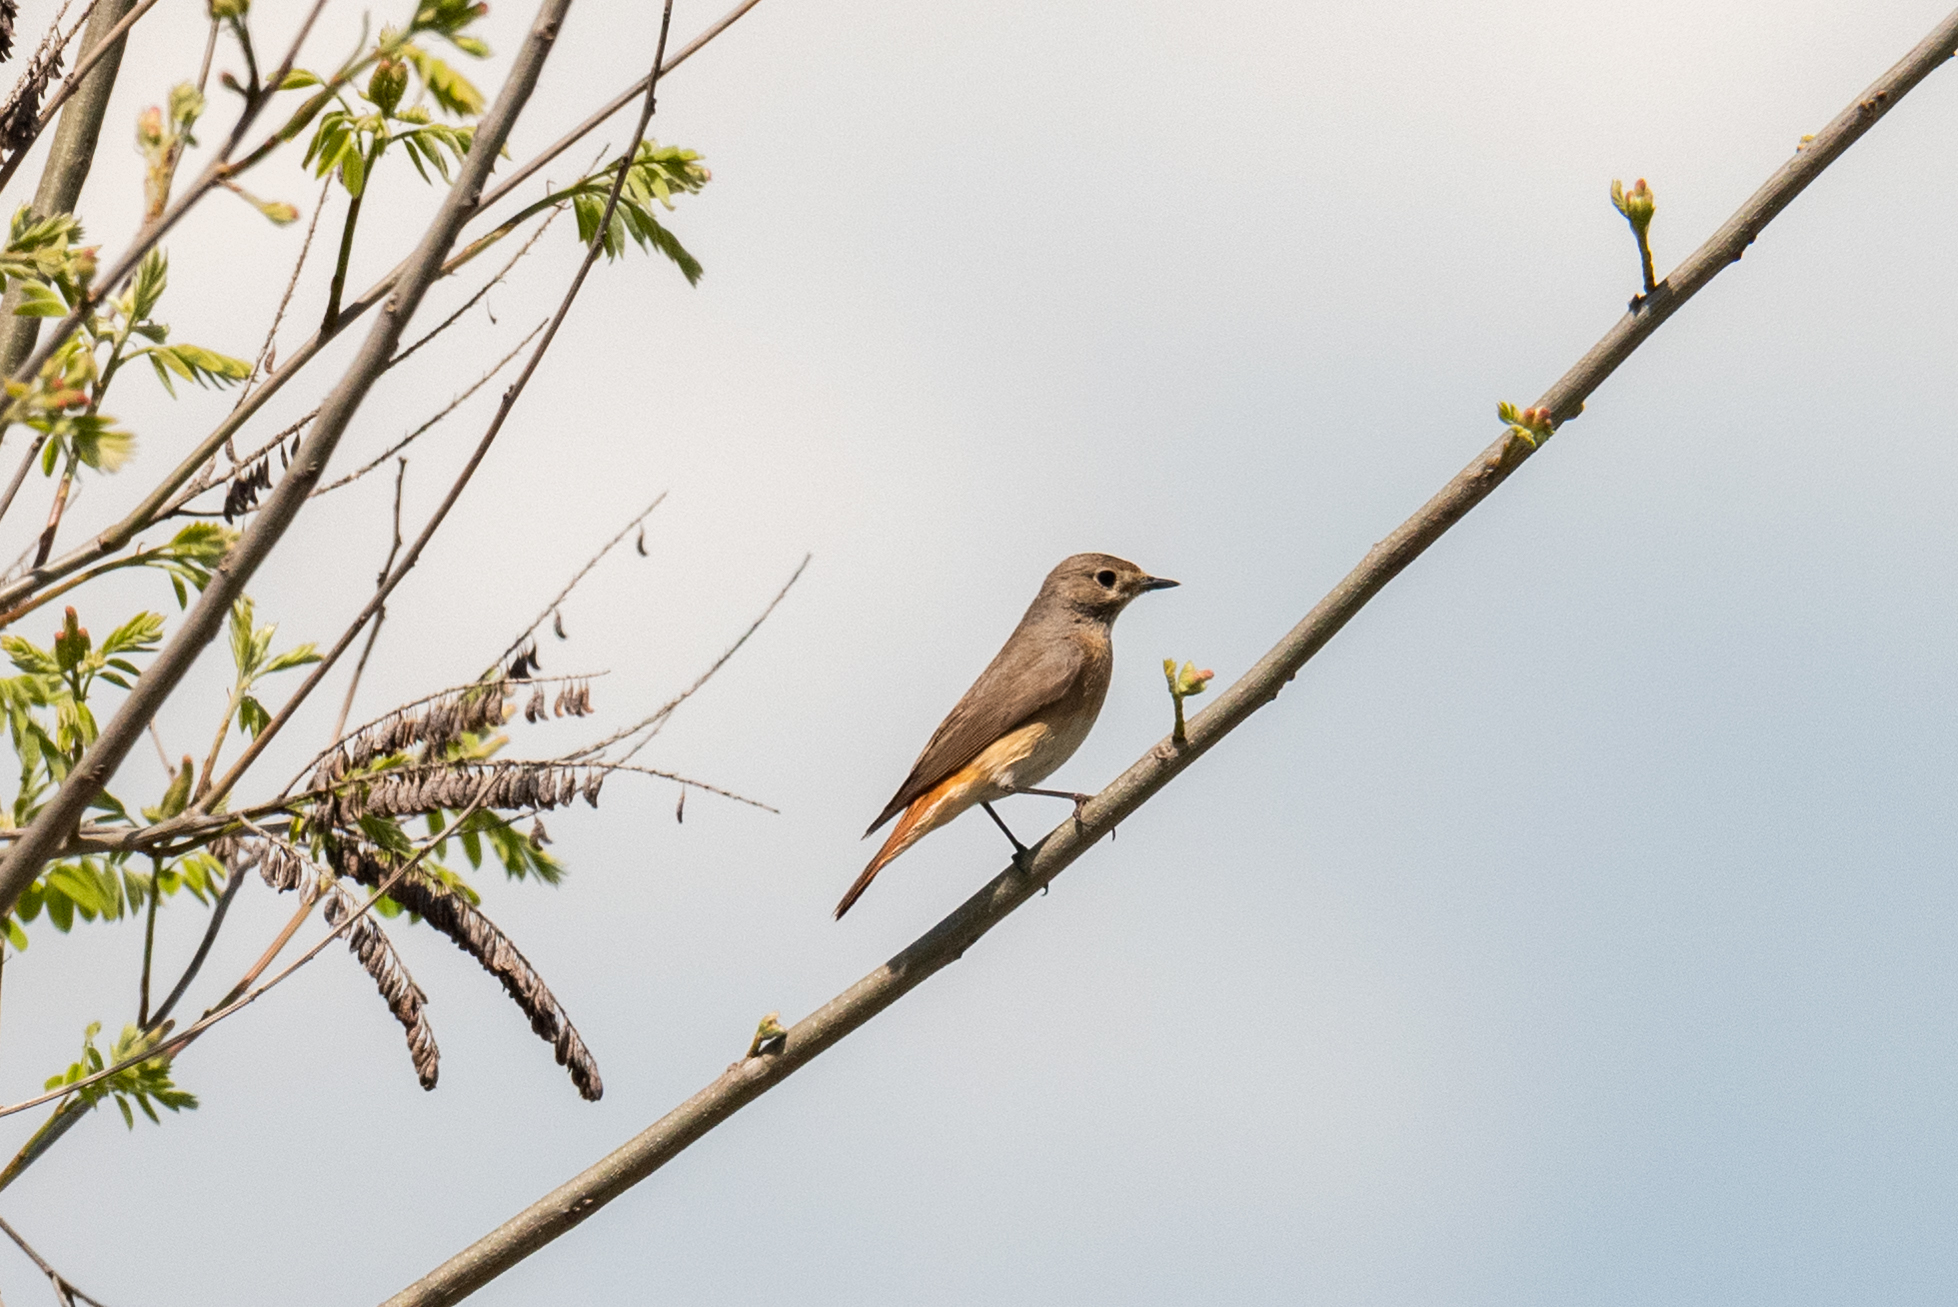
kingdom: Animalia
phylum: Chordata
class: Aves
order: Passeriformes
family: Muscicapidae
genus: Phoenicurus
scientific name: Phoenicurus phoenicurus
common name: Common redstart
